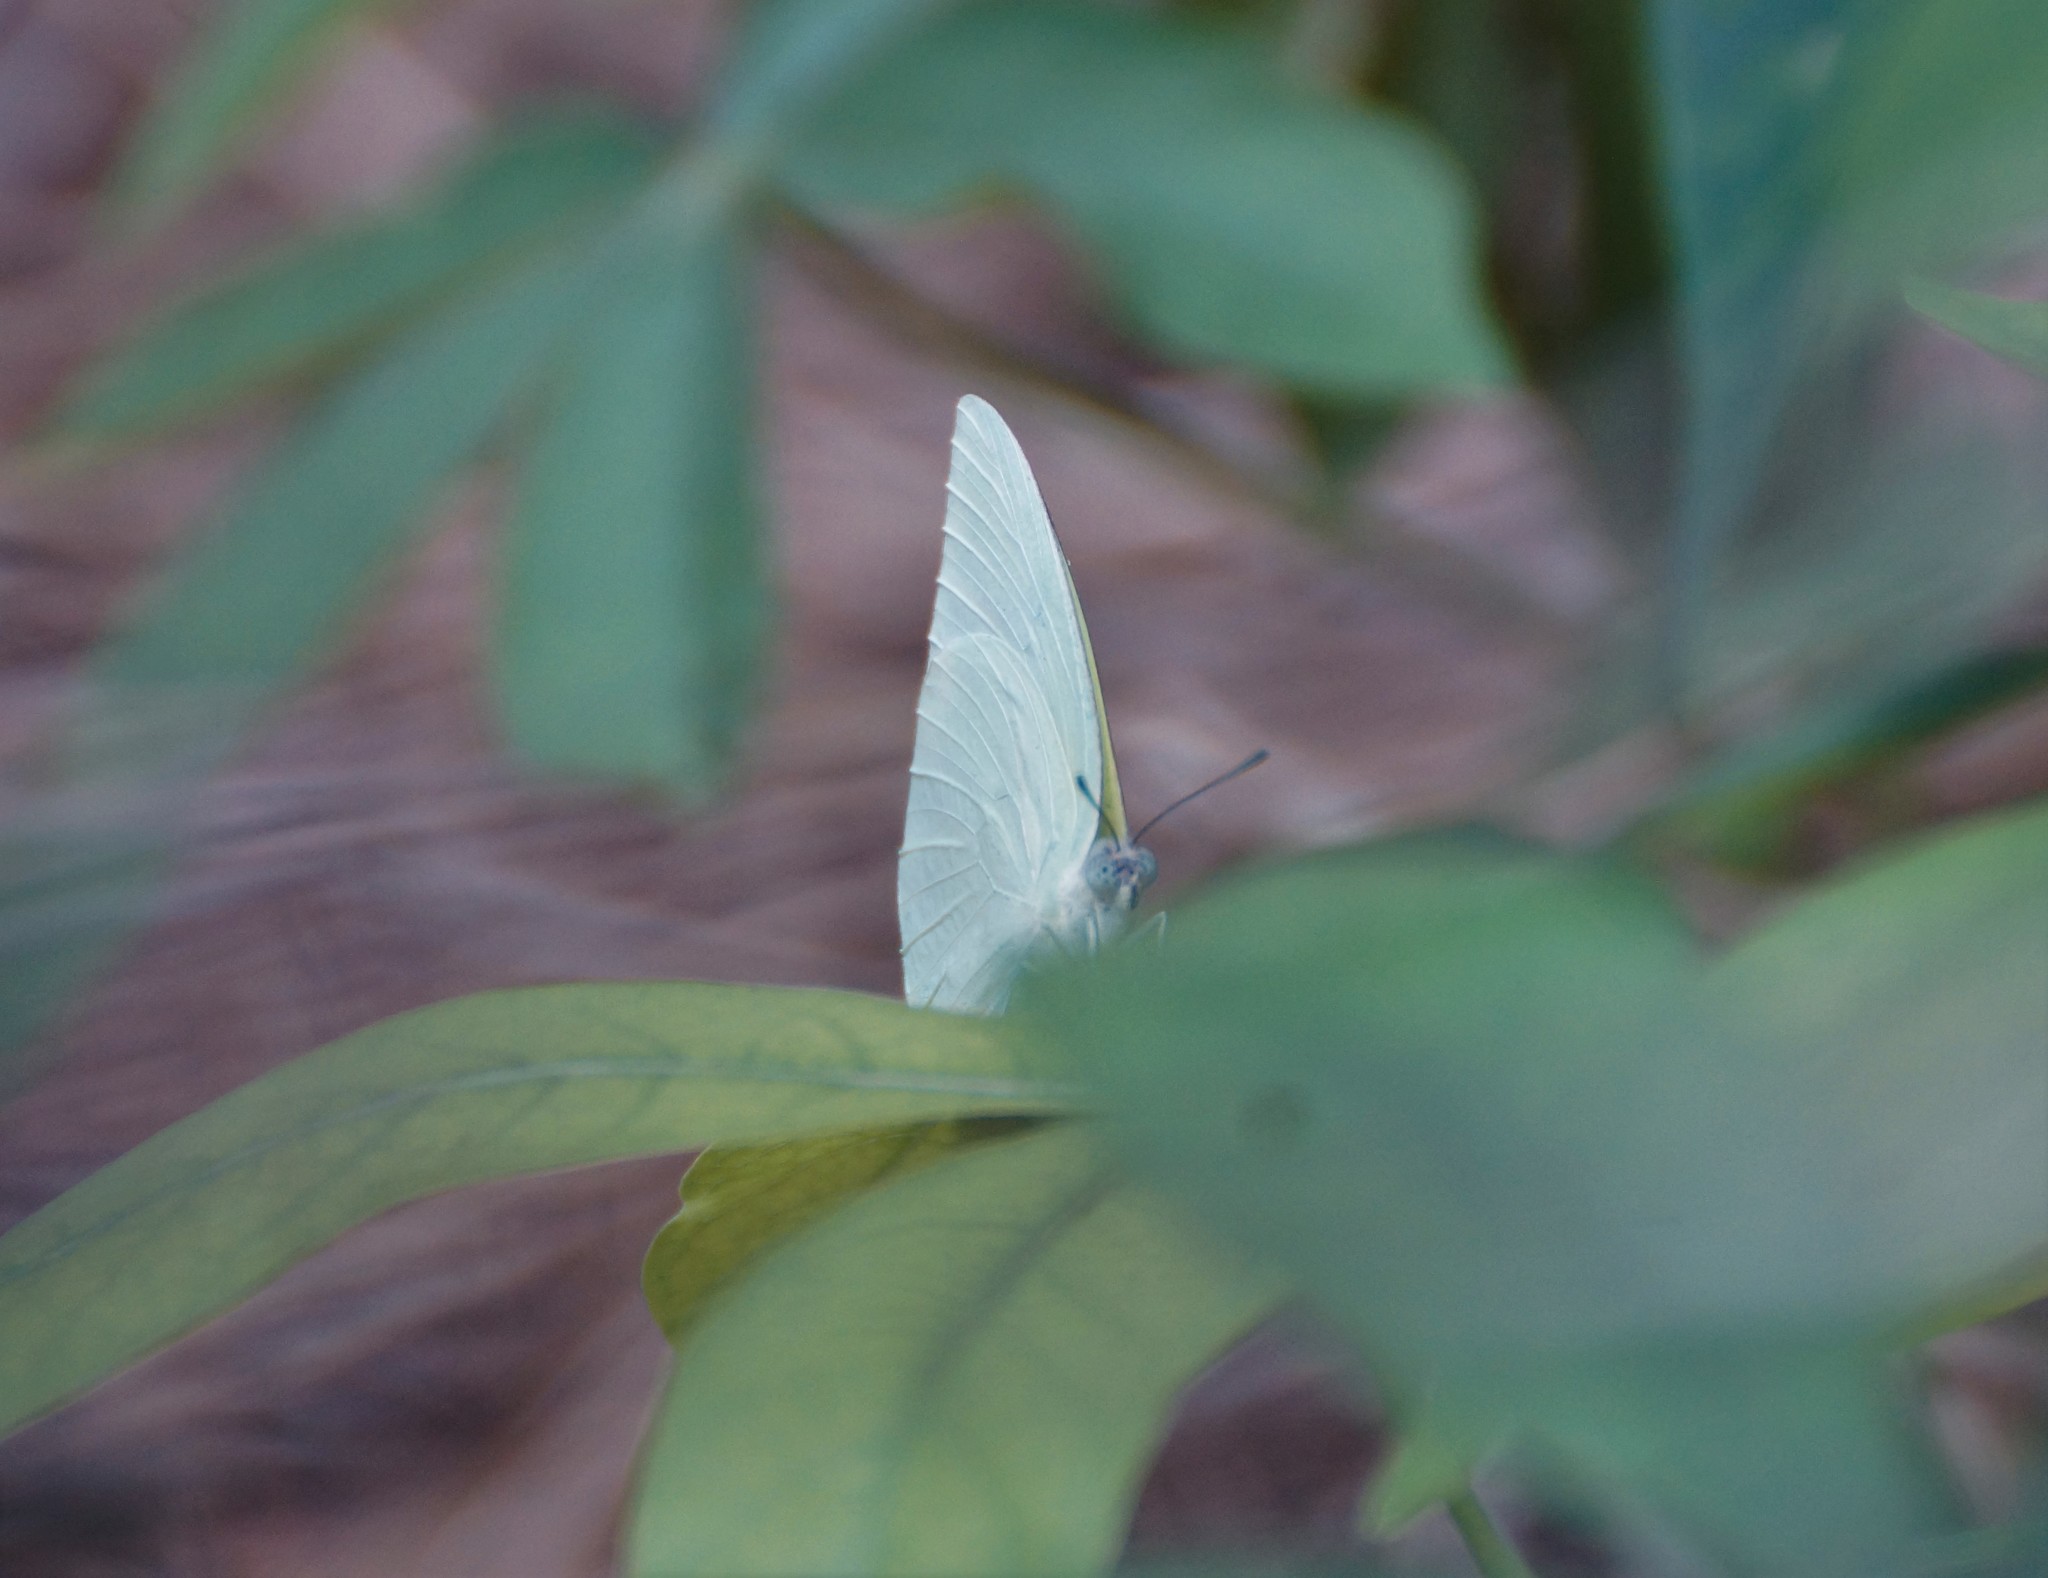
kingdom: Animalia
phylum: Arthropoda
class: Insecta
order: Lepidoptera
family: Pieridae
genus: Catopsilia
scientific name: Catopsilia pomona
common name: Common emigrant
